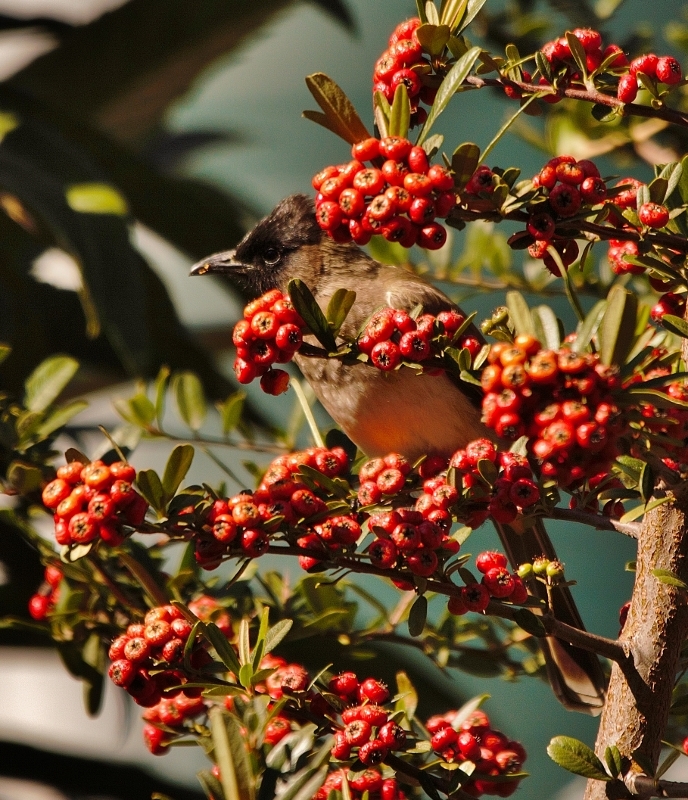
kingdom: Animalia
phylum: Chordata
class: Aves
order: Passeriformes
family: Pycnonotidae
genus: Pycnonotus
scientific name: Pycnonotus barbatus
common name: Common bulbul
